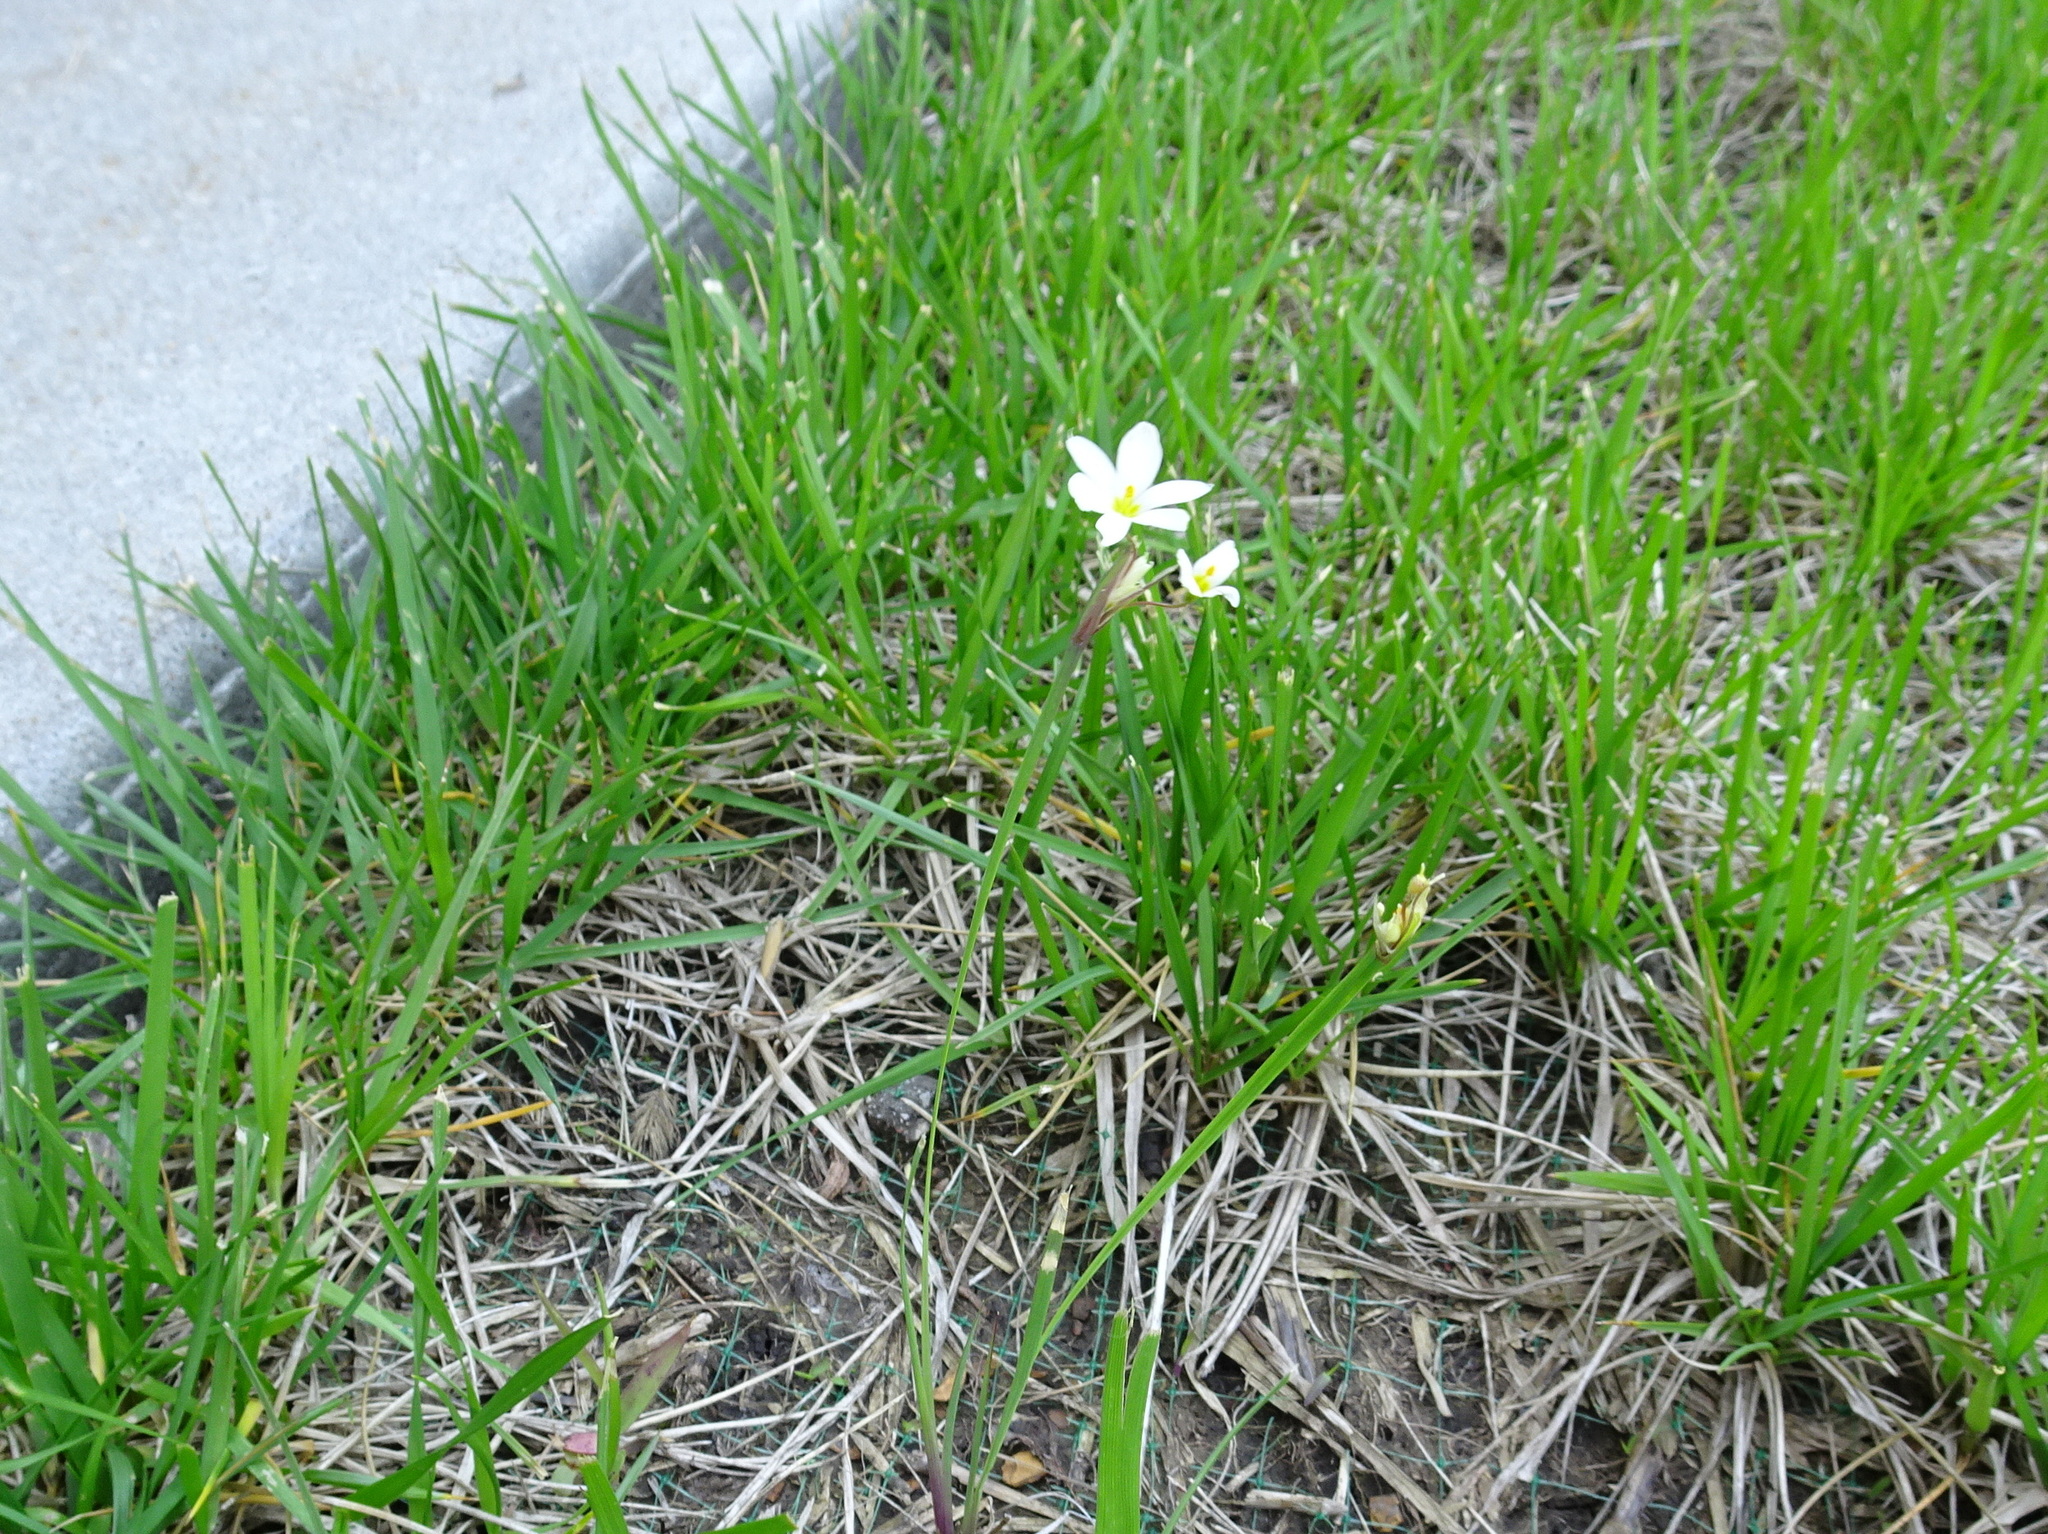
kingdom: Plantae
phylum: Tracheophyta
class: Liliopsida
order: Asparagales
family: Iridaceae
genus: Sisyrinchium
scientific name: Sisyrinchium campestre
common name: Prairie blue-eyed-grass
